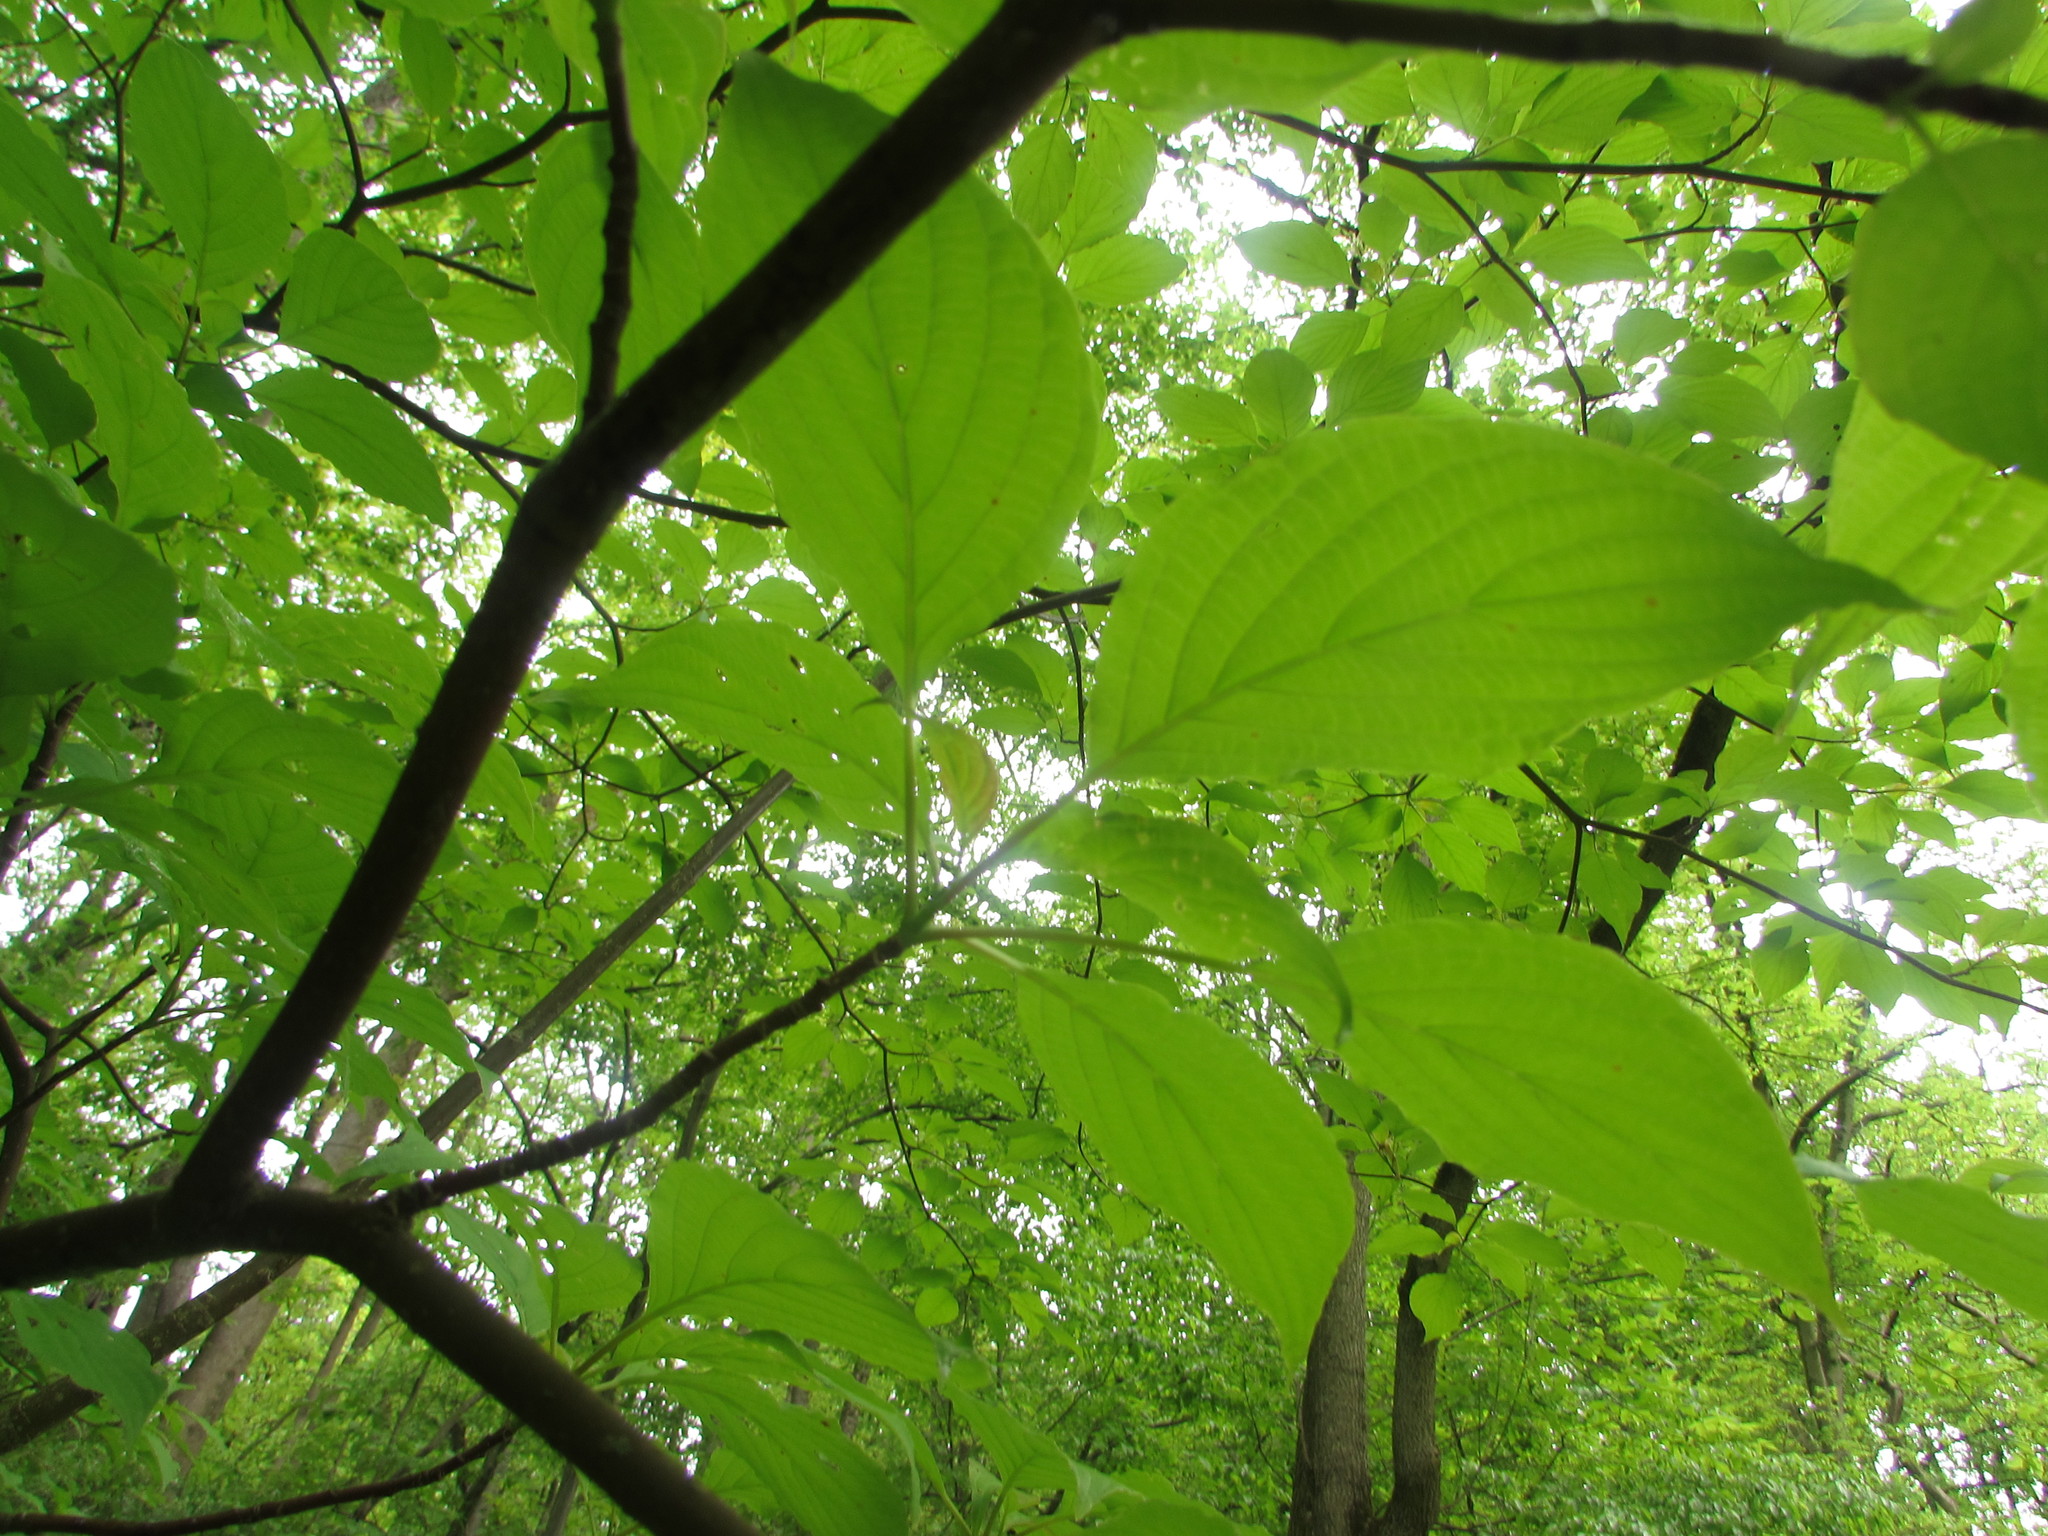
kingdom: Plantae
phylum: Tracheophyta
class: Magnoliopsida
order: Cornales
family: Cornaceae
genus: Cornus
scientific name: Cornus alternifolia
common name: Pagoda dogwood
